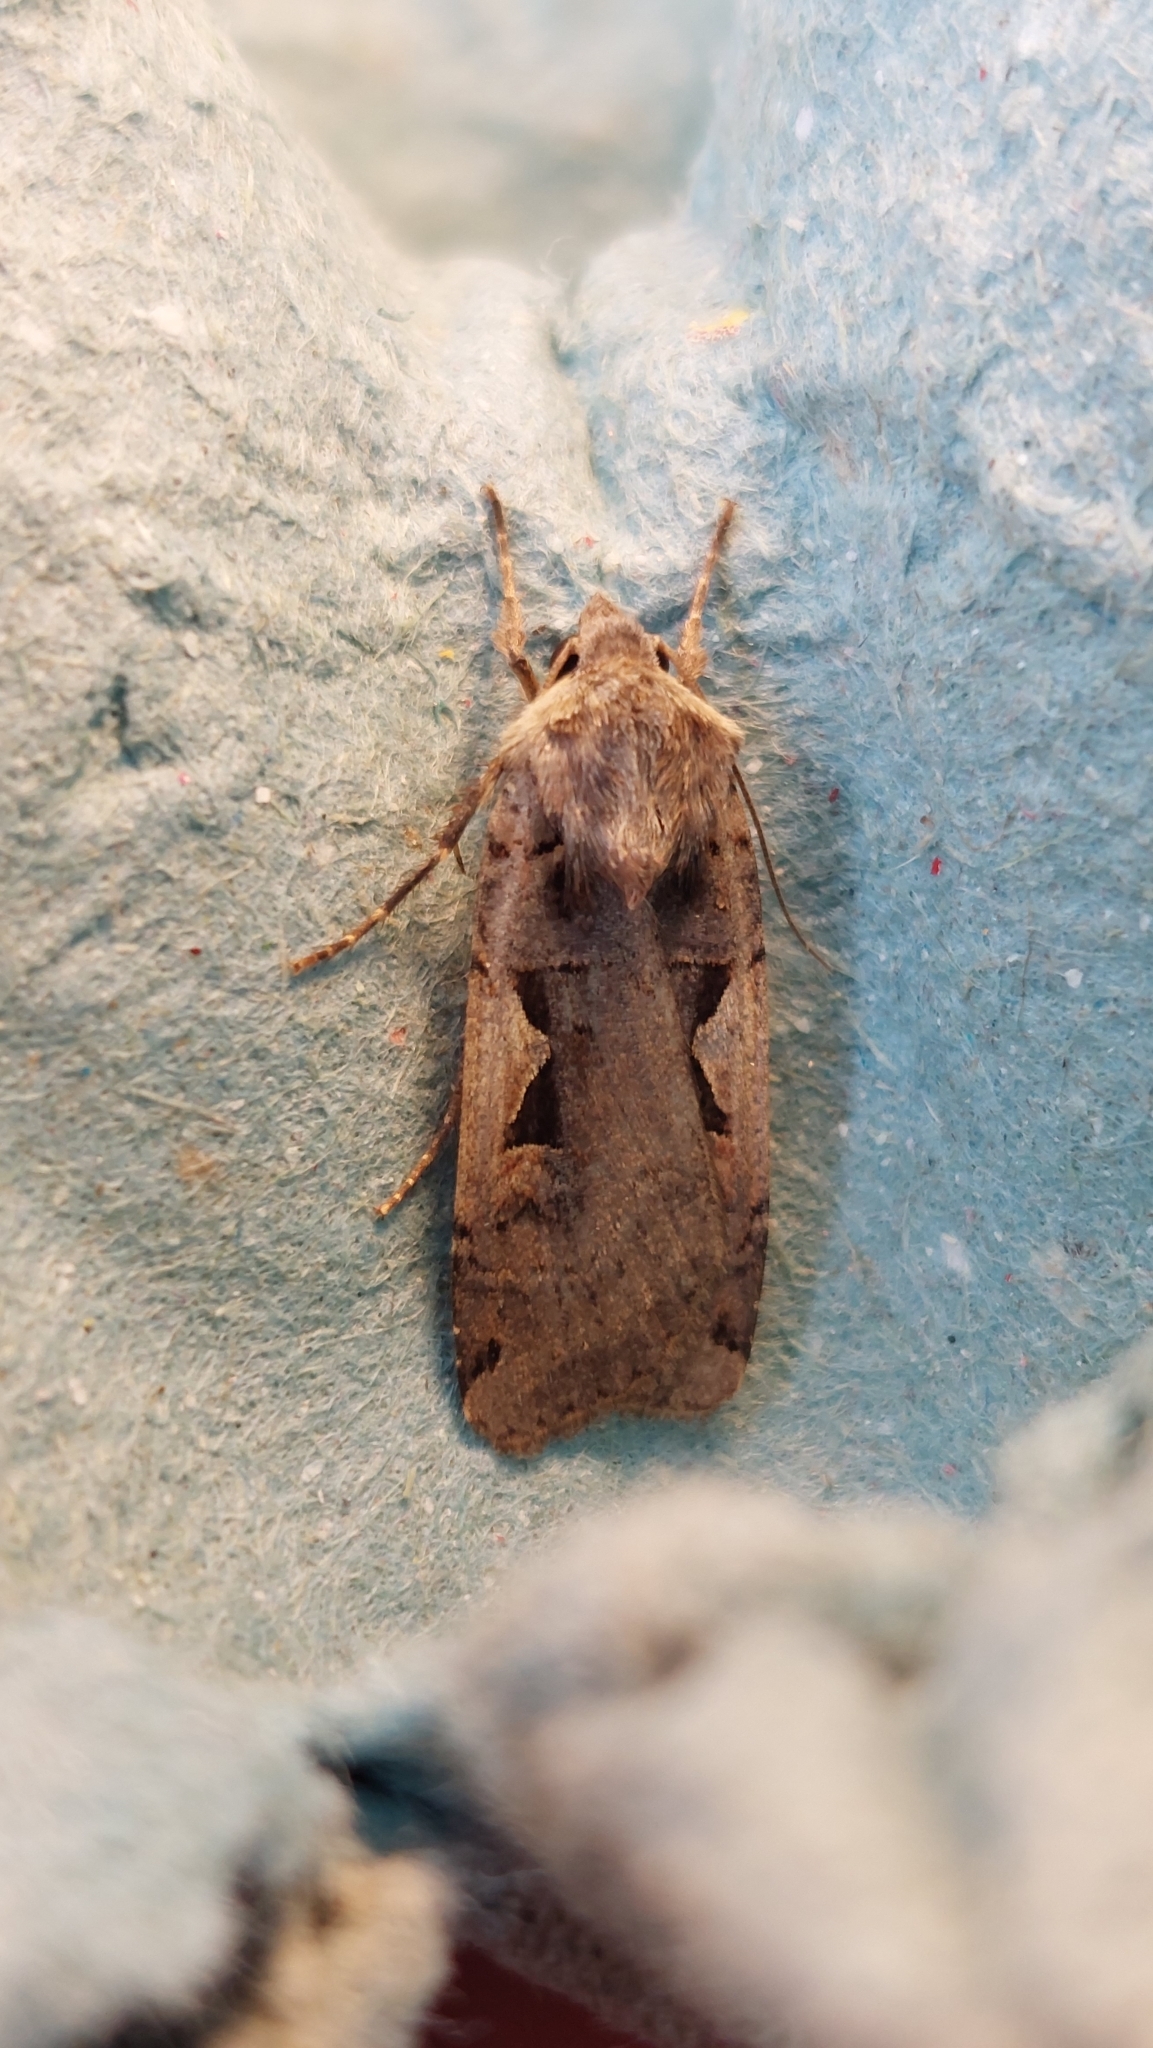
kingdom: Animalia
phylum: Arthropoda
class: Insecta
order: Lepidoptera
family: Noctuidae
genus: Xestia
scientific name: Xestia c-nigrum
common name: Setaceous hebrew character
